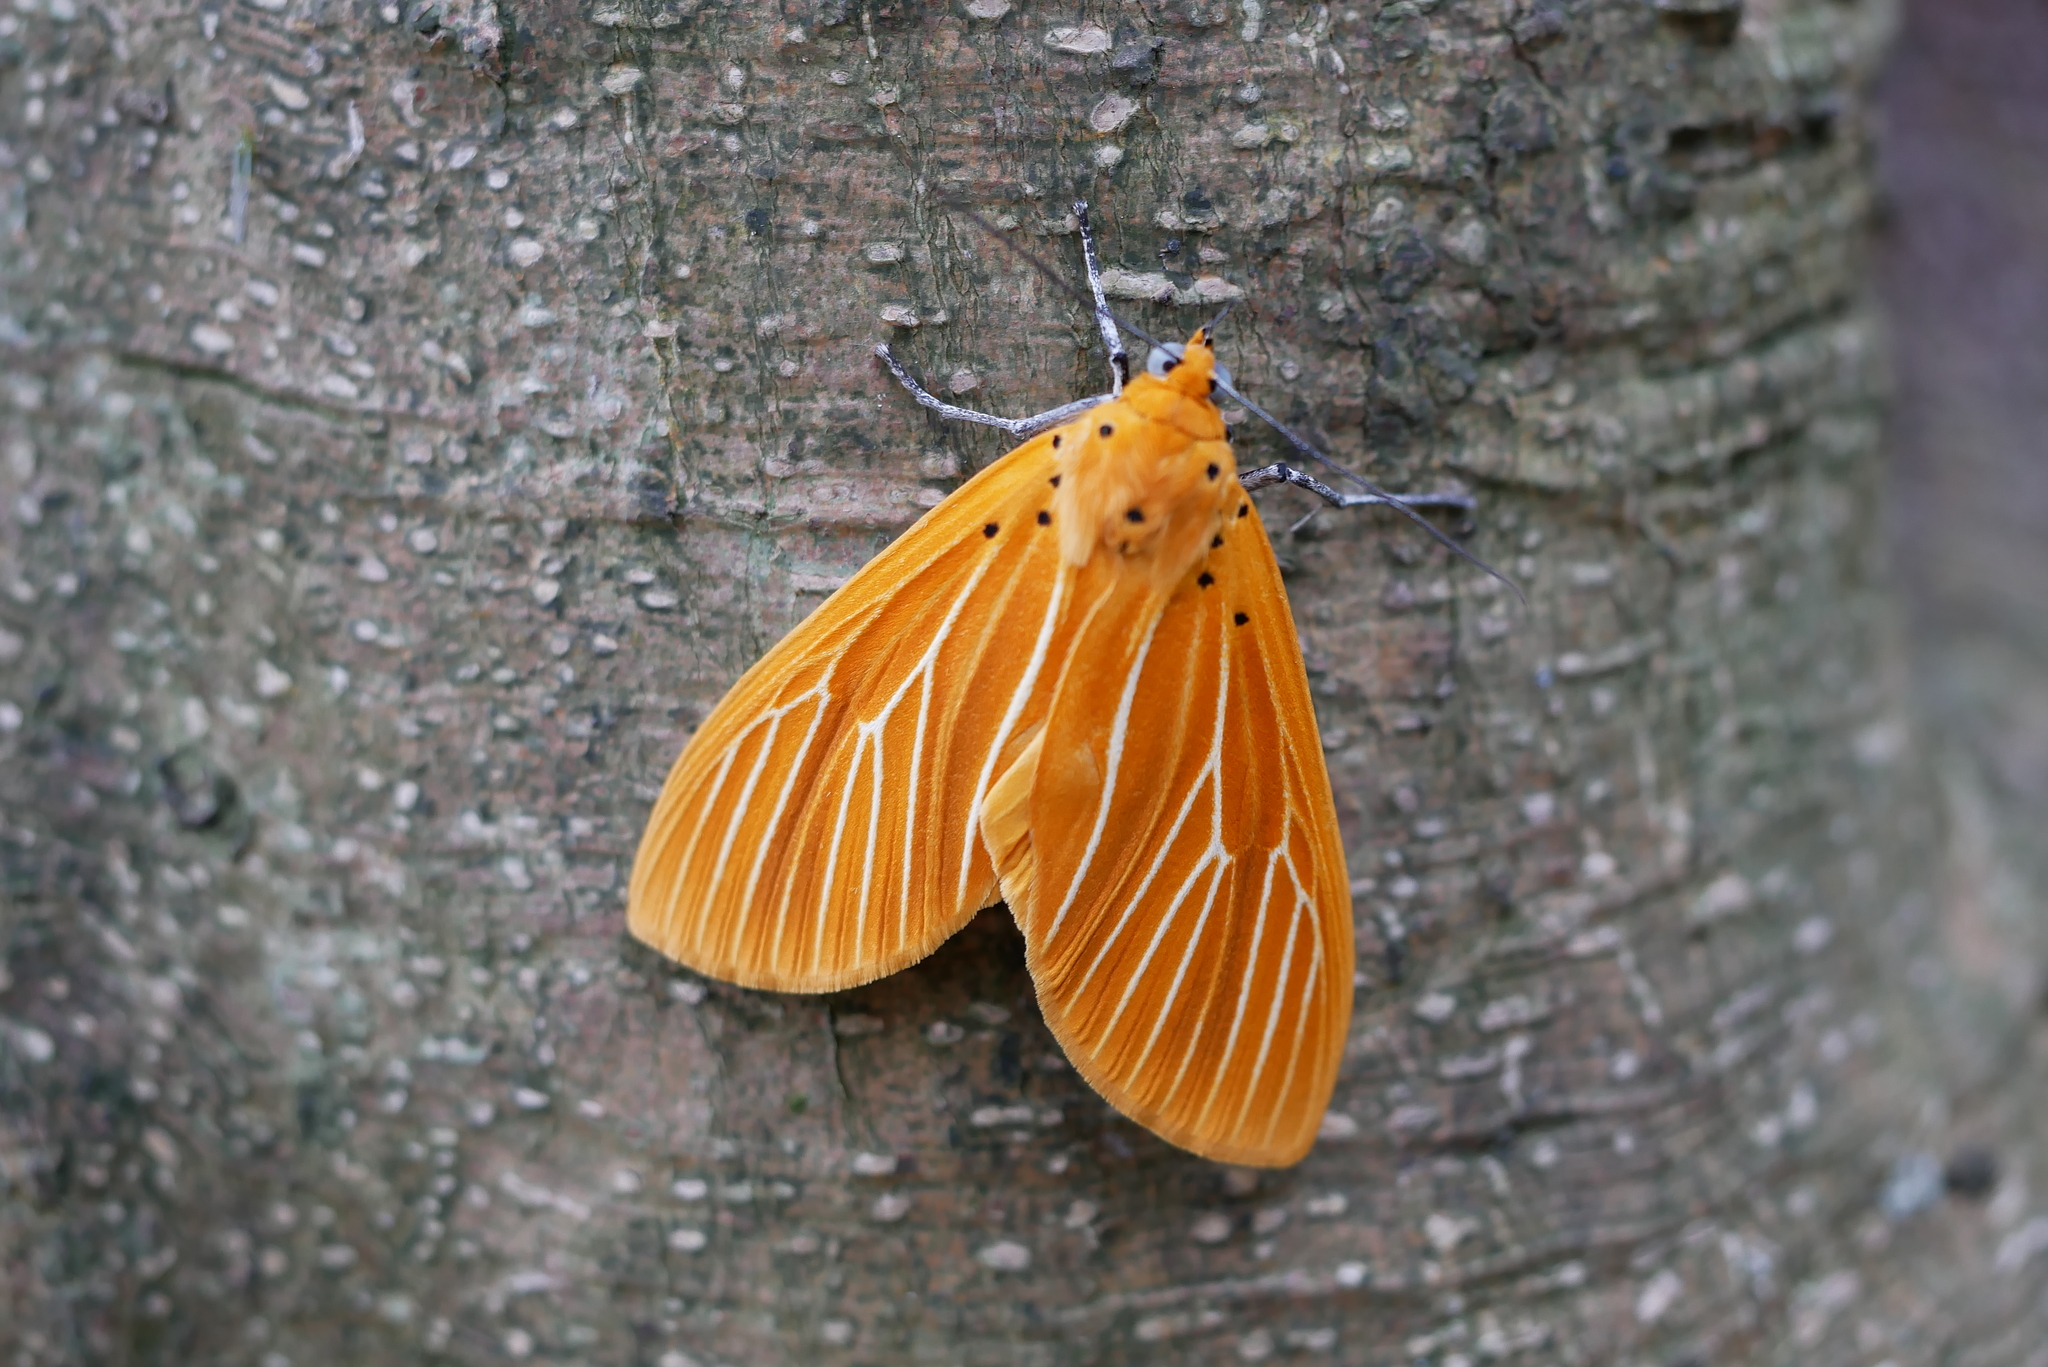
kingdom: Animalia
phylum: Arthropoda
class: Insecta
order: Lepidoptera
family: Erebidae
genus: Asota
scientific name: Asota egens
